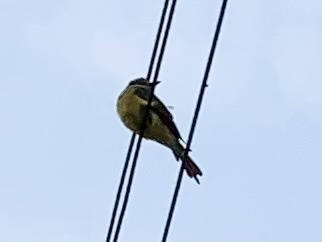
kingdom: Animalia
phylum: Chordata
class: Aves
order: Passeriformes
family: Tyrannidae
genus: Tyrannus
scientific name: Tyrannus melancholicus
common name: Tropical kingbird
